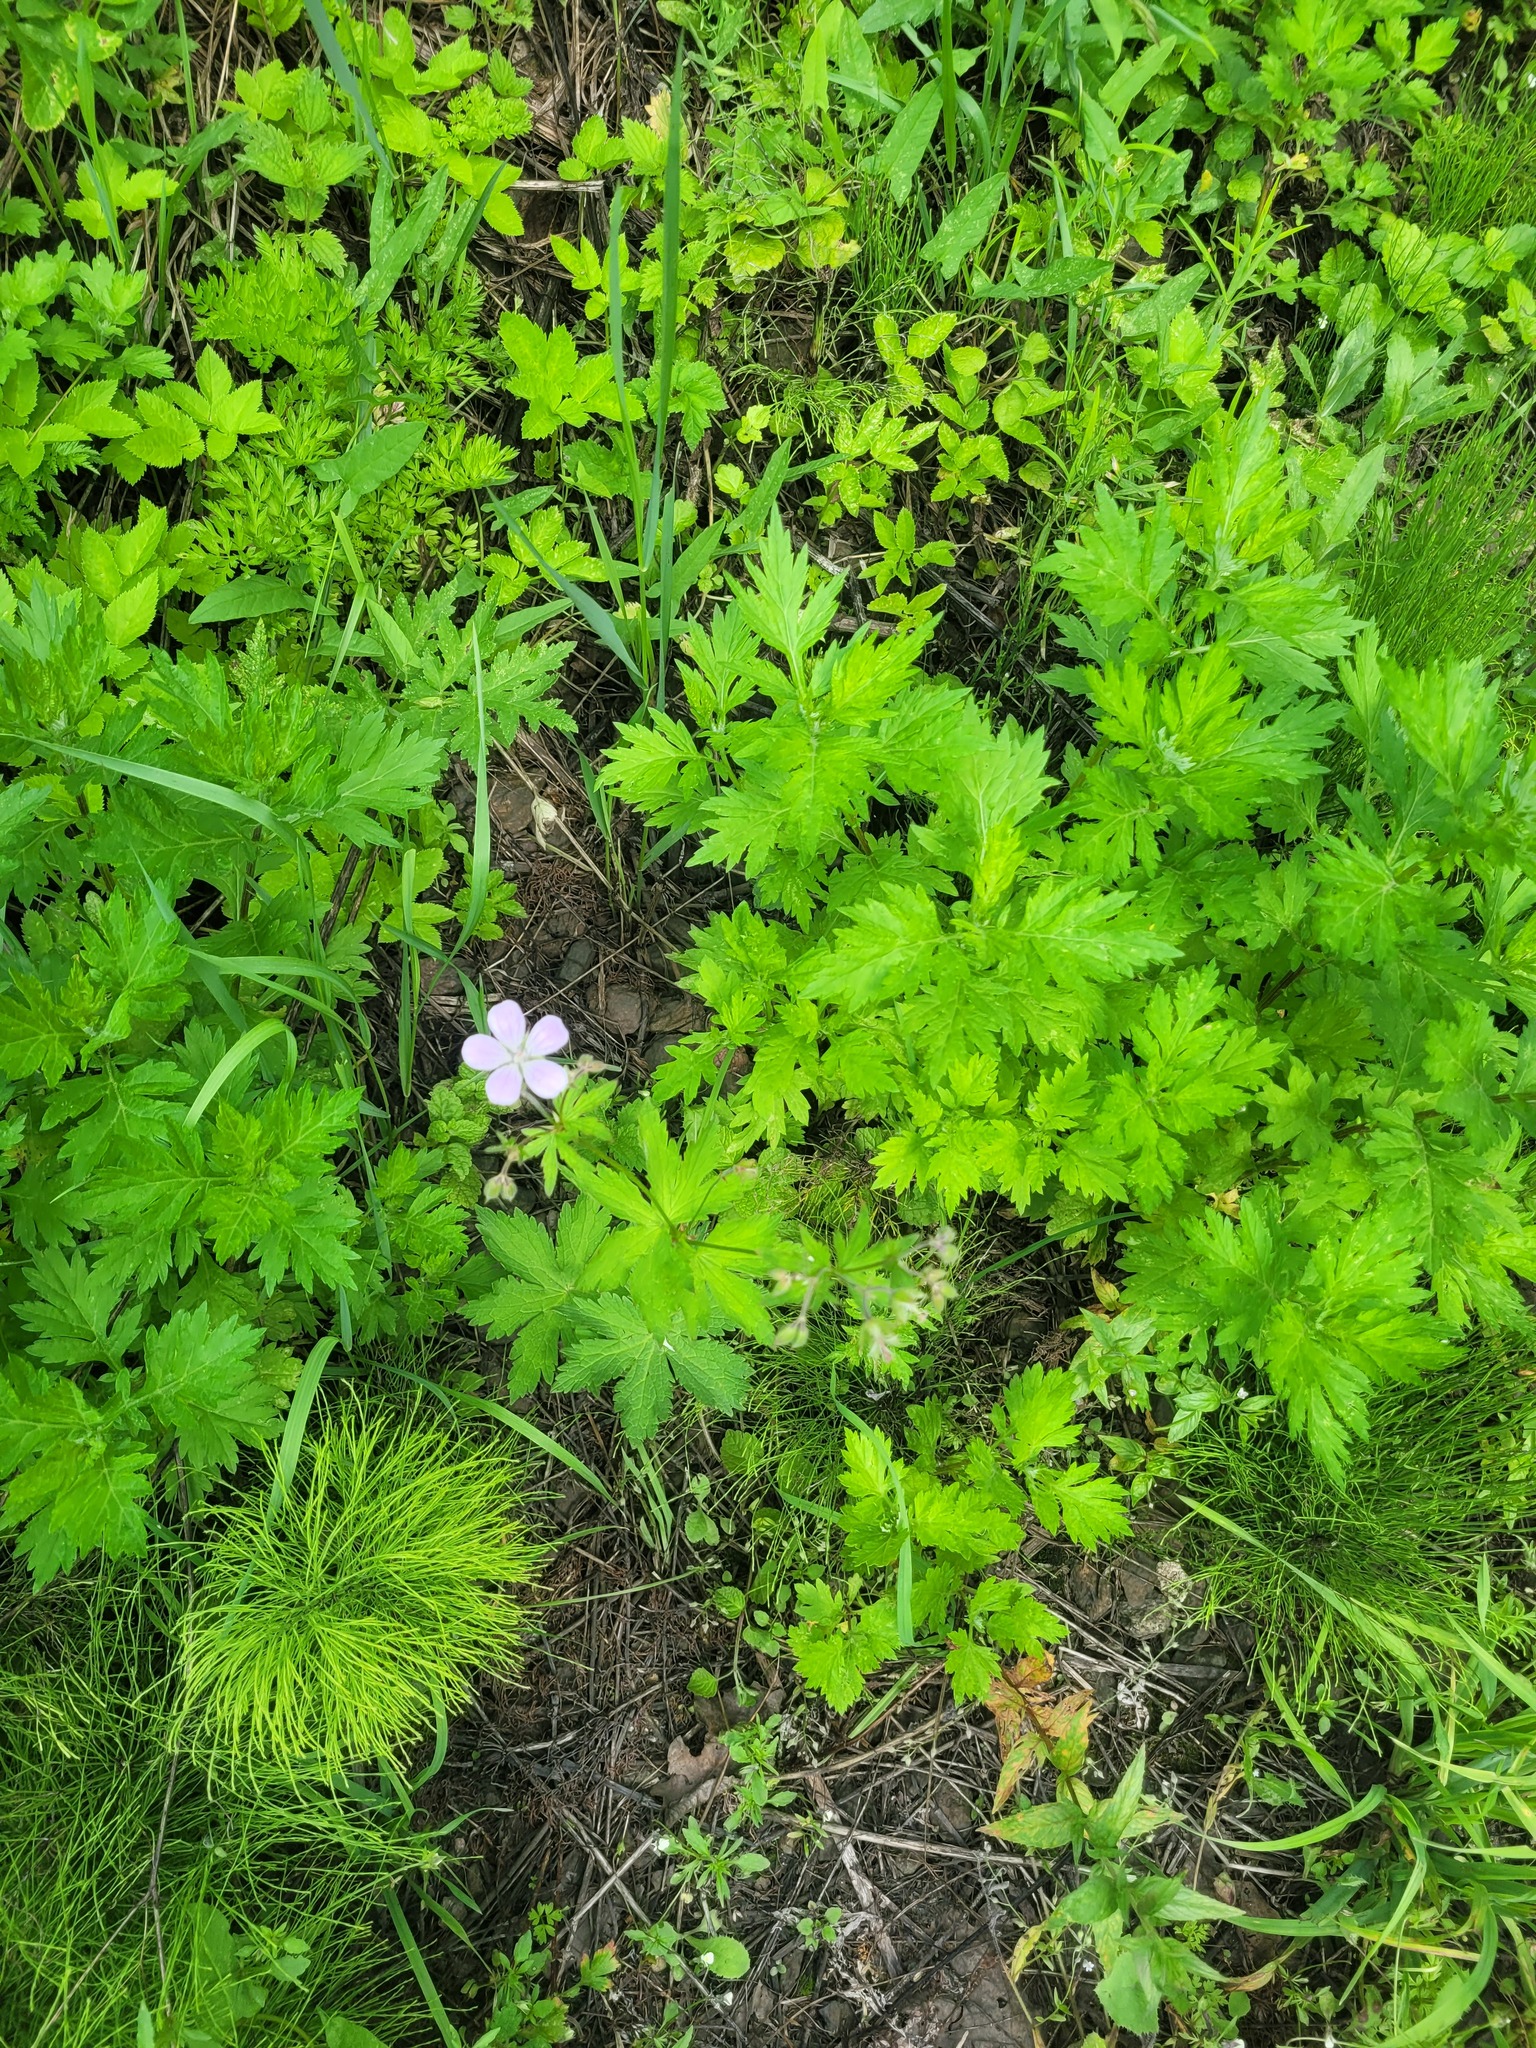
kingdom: Plantae
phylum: Tracheophyta
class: Magnoliopsida
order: Geraniales
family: Geraniaceae
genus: Geranium
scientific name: Geranium sylvaticum
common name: Wood crane's-bill
